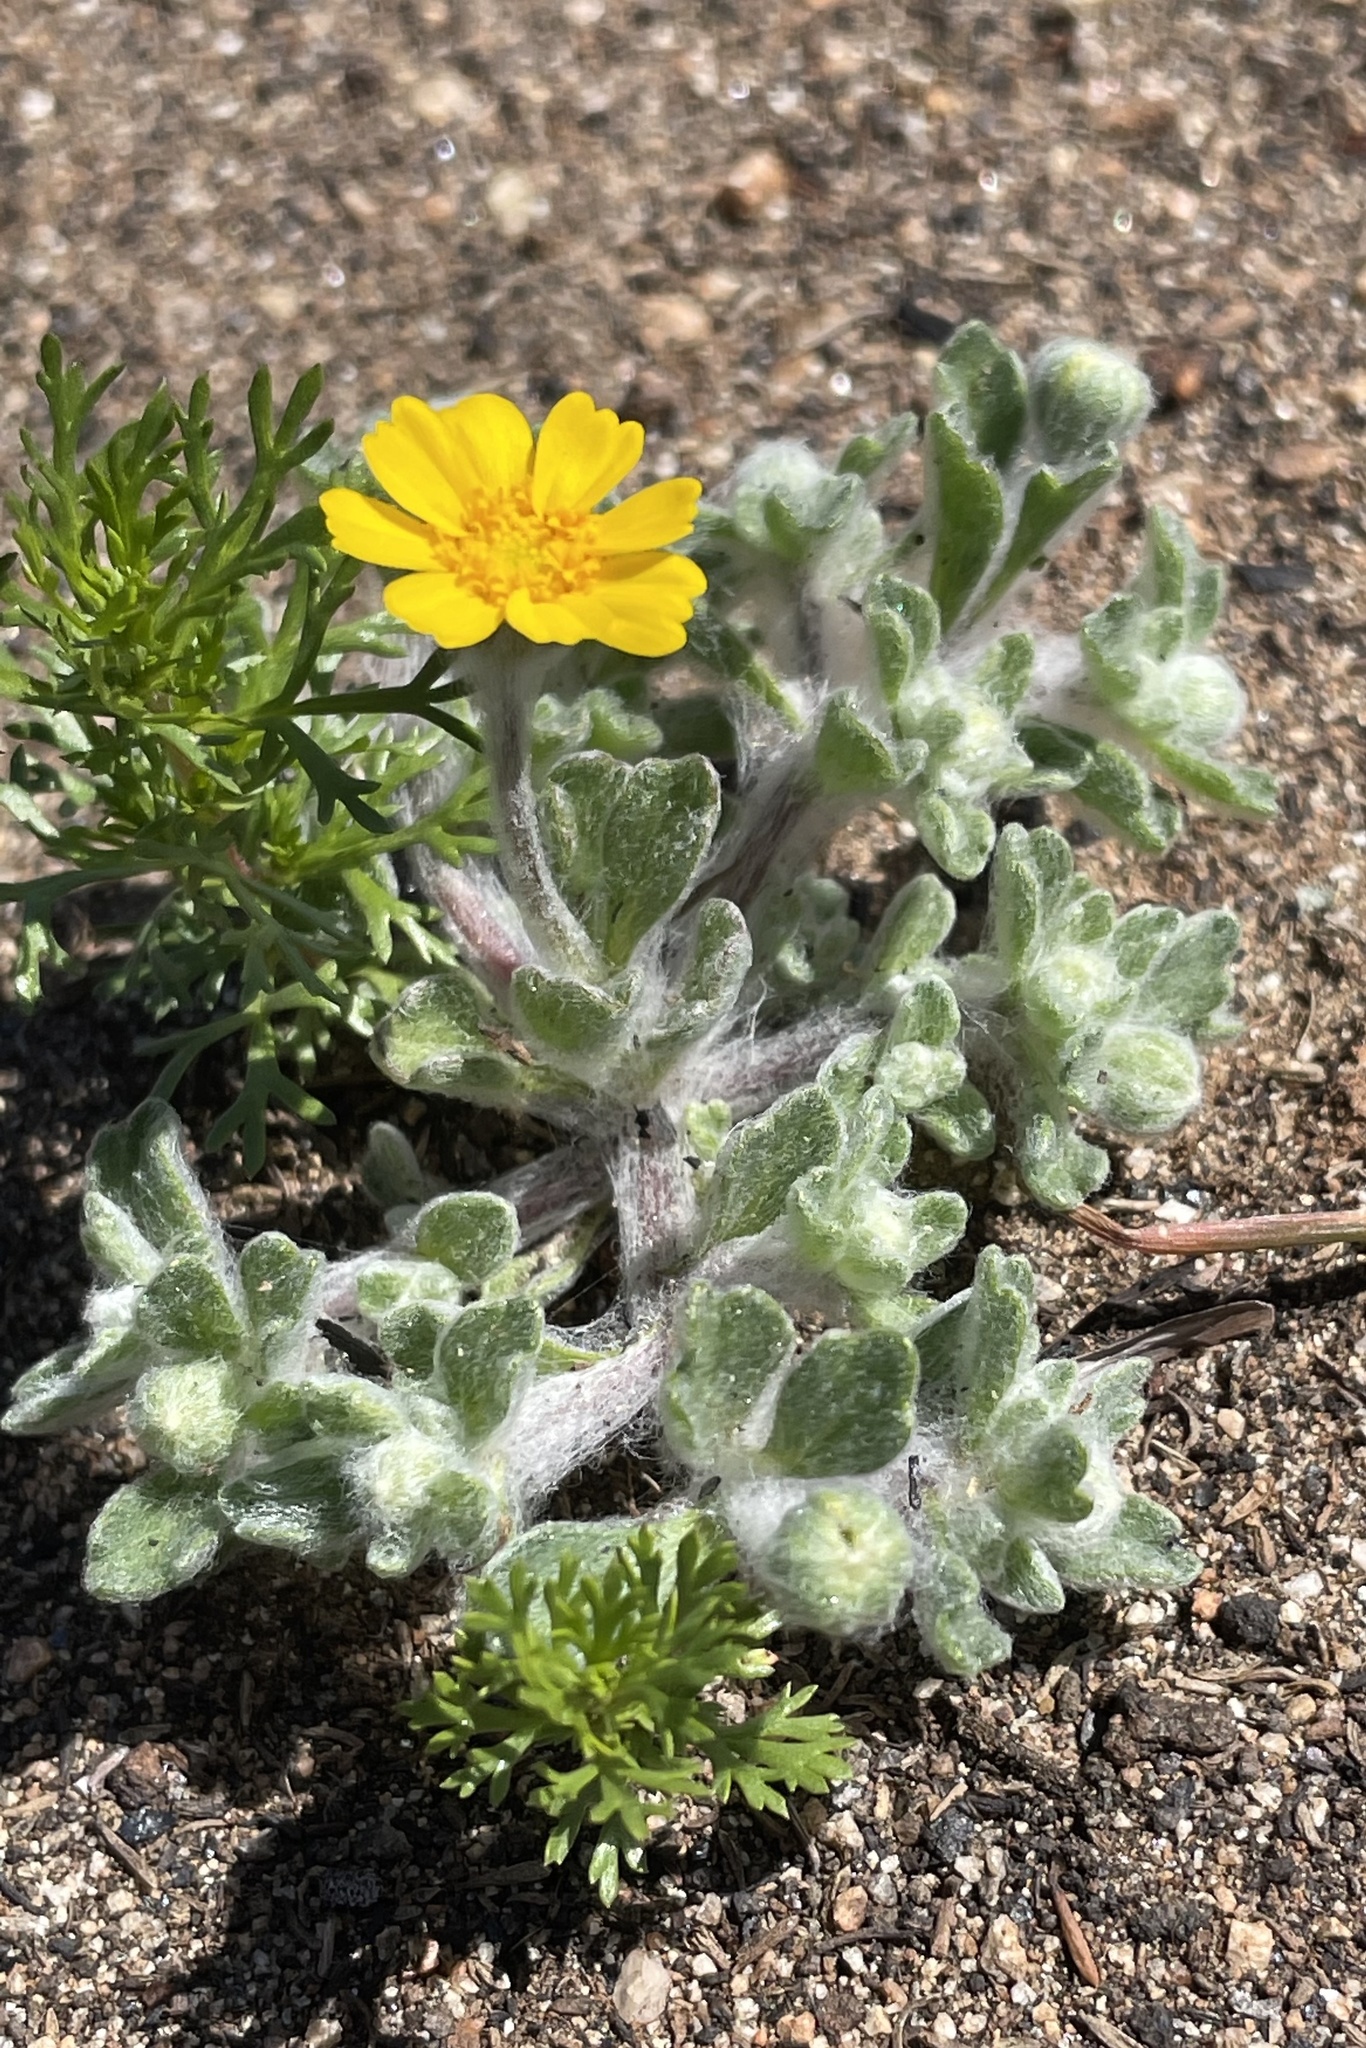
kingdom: Plantae
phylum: Tracheophyta
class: Magnoliopsida
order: Asterales
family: Asteraceae
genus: Eriophyllum
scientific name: Eriophyllum wallacei
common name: Wallace's woolly daisy
